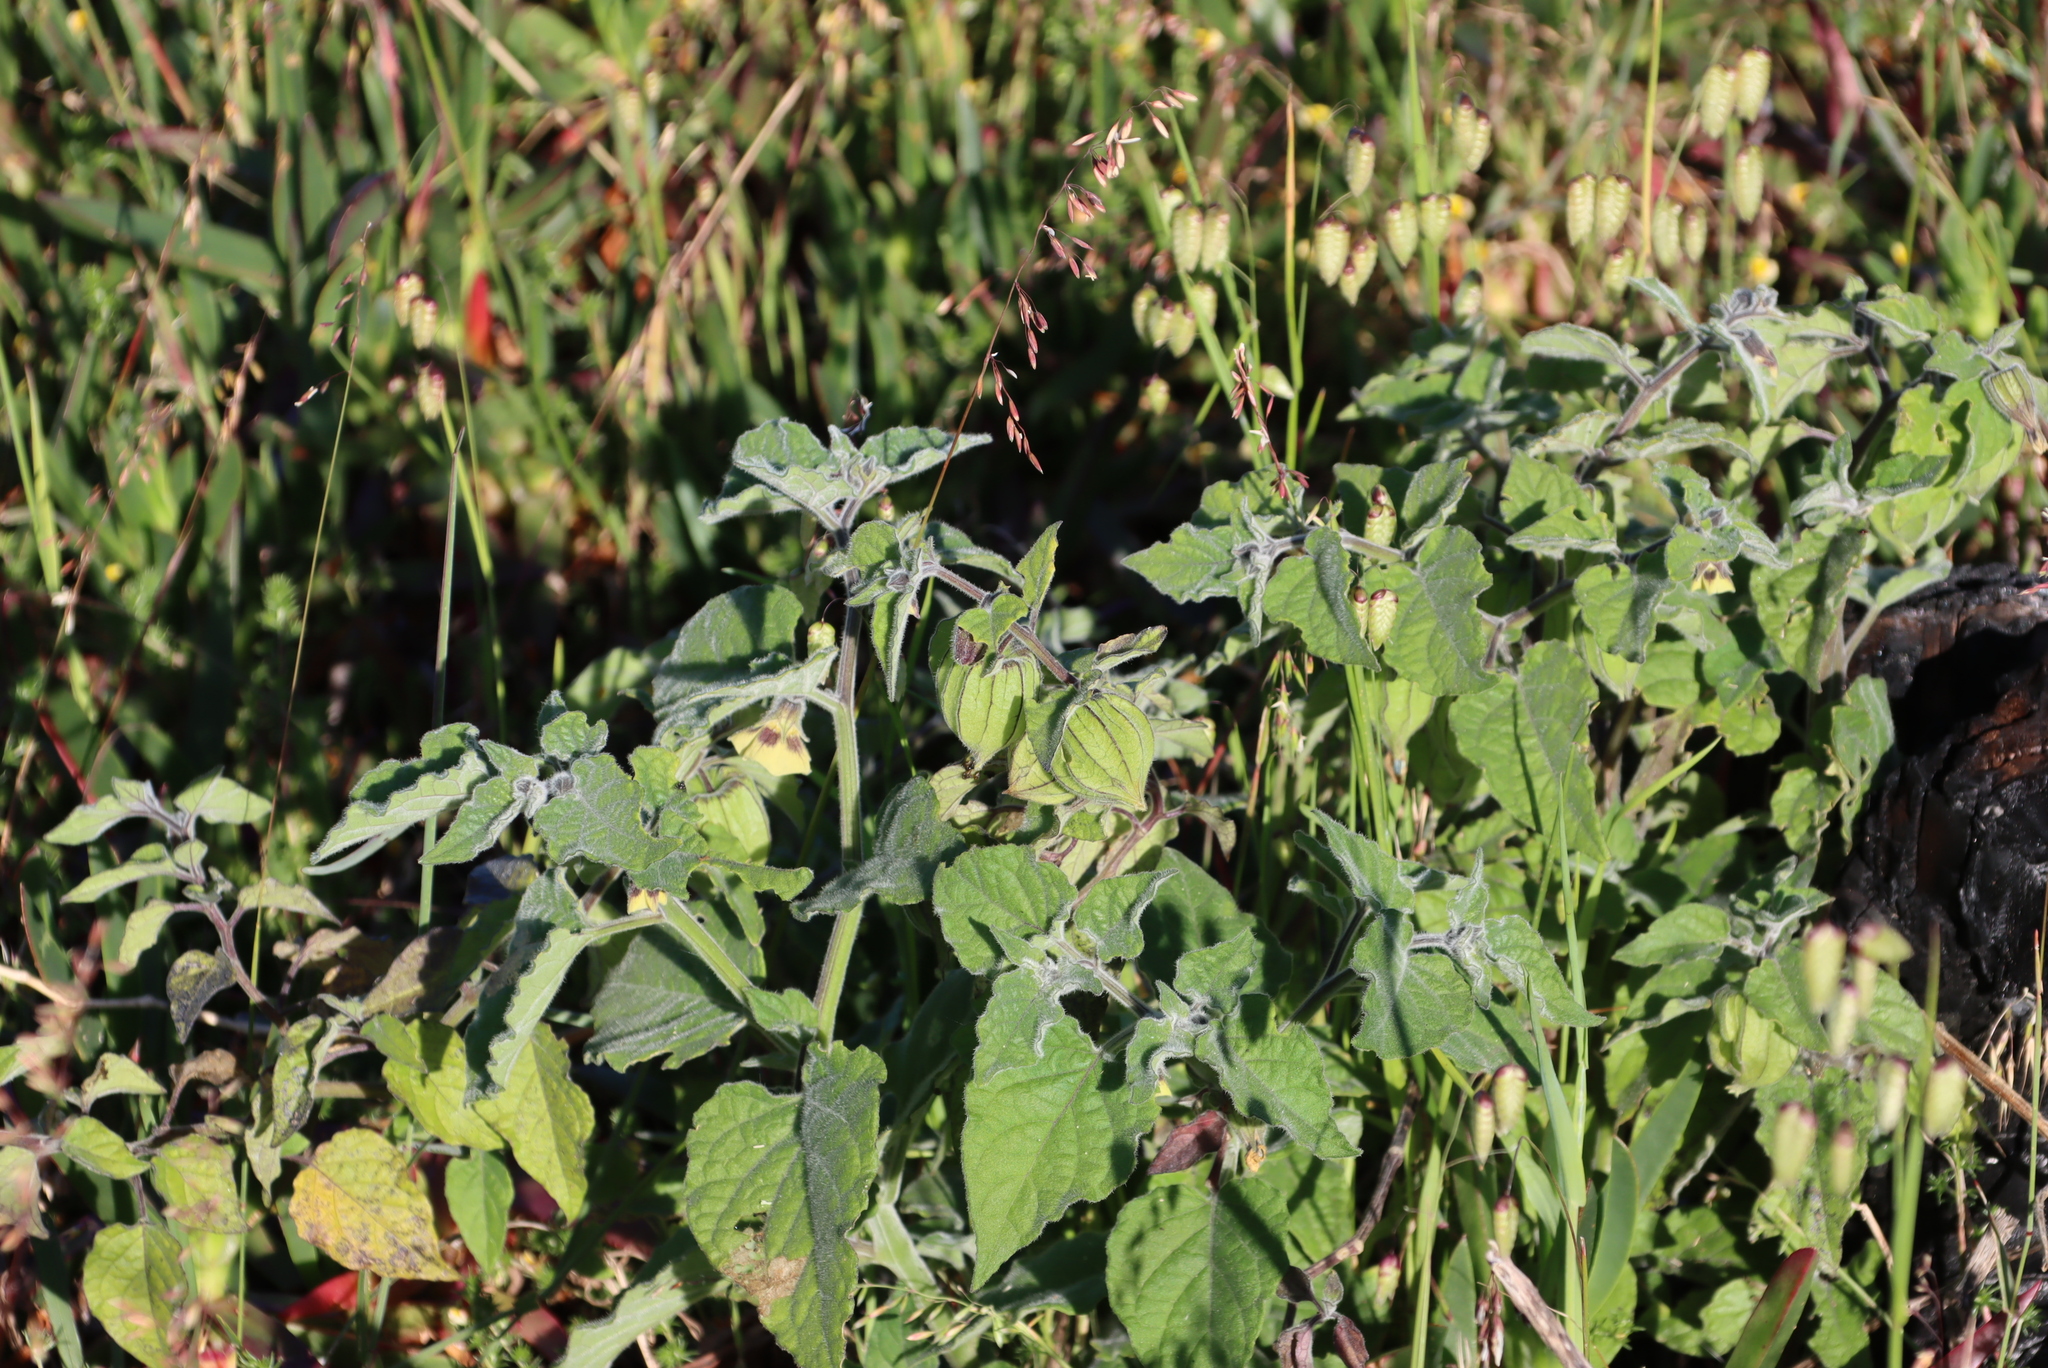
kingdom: Plantae
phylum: Tracheophyta
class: Magnoliopsida
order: Solanales
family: Solanaceae
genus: Physalis
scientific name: Physalis peruviana
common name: Cape-gooseberry
